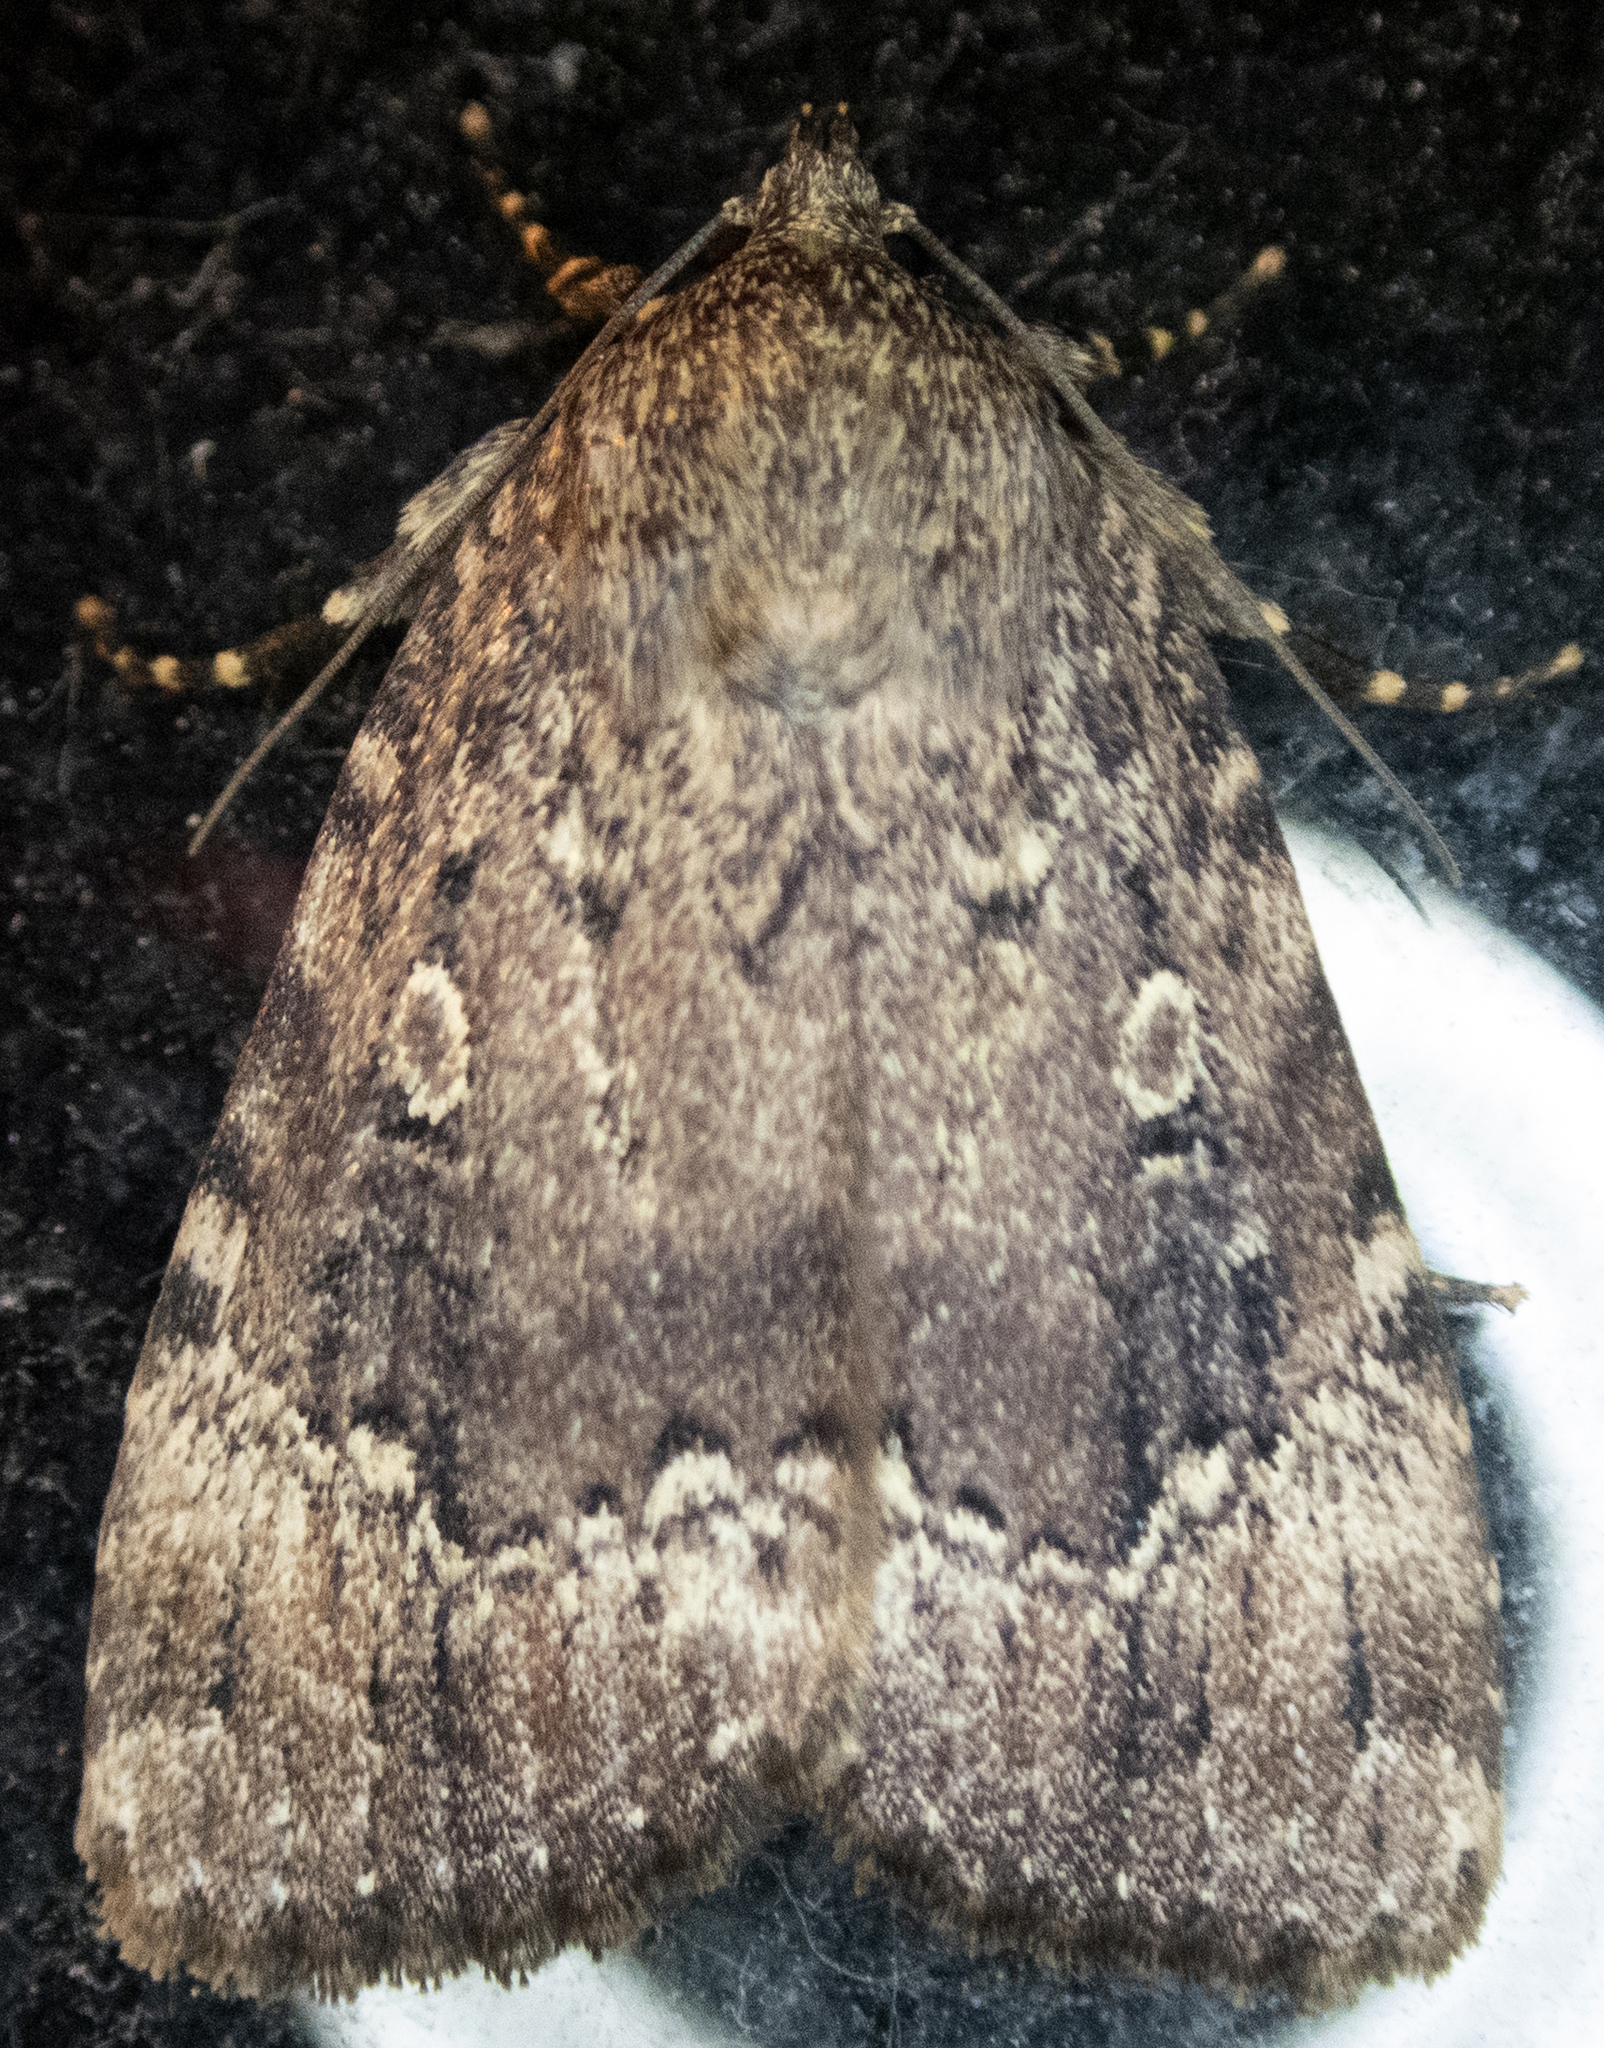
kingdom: Animalia
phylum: Arthropoda
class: Insecta
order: Lepidoptera
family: Noctuidae
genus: Amphipyra
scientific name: Amphipyra pyramidoides
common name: American copper underwing
